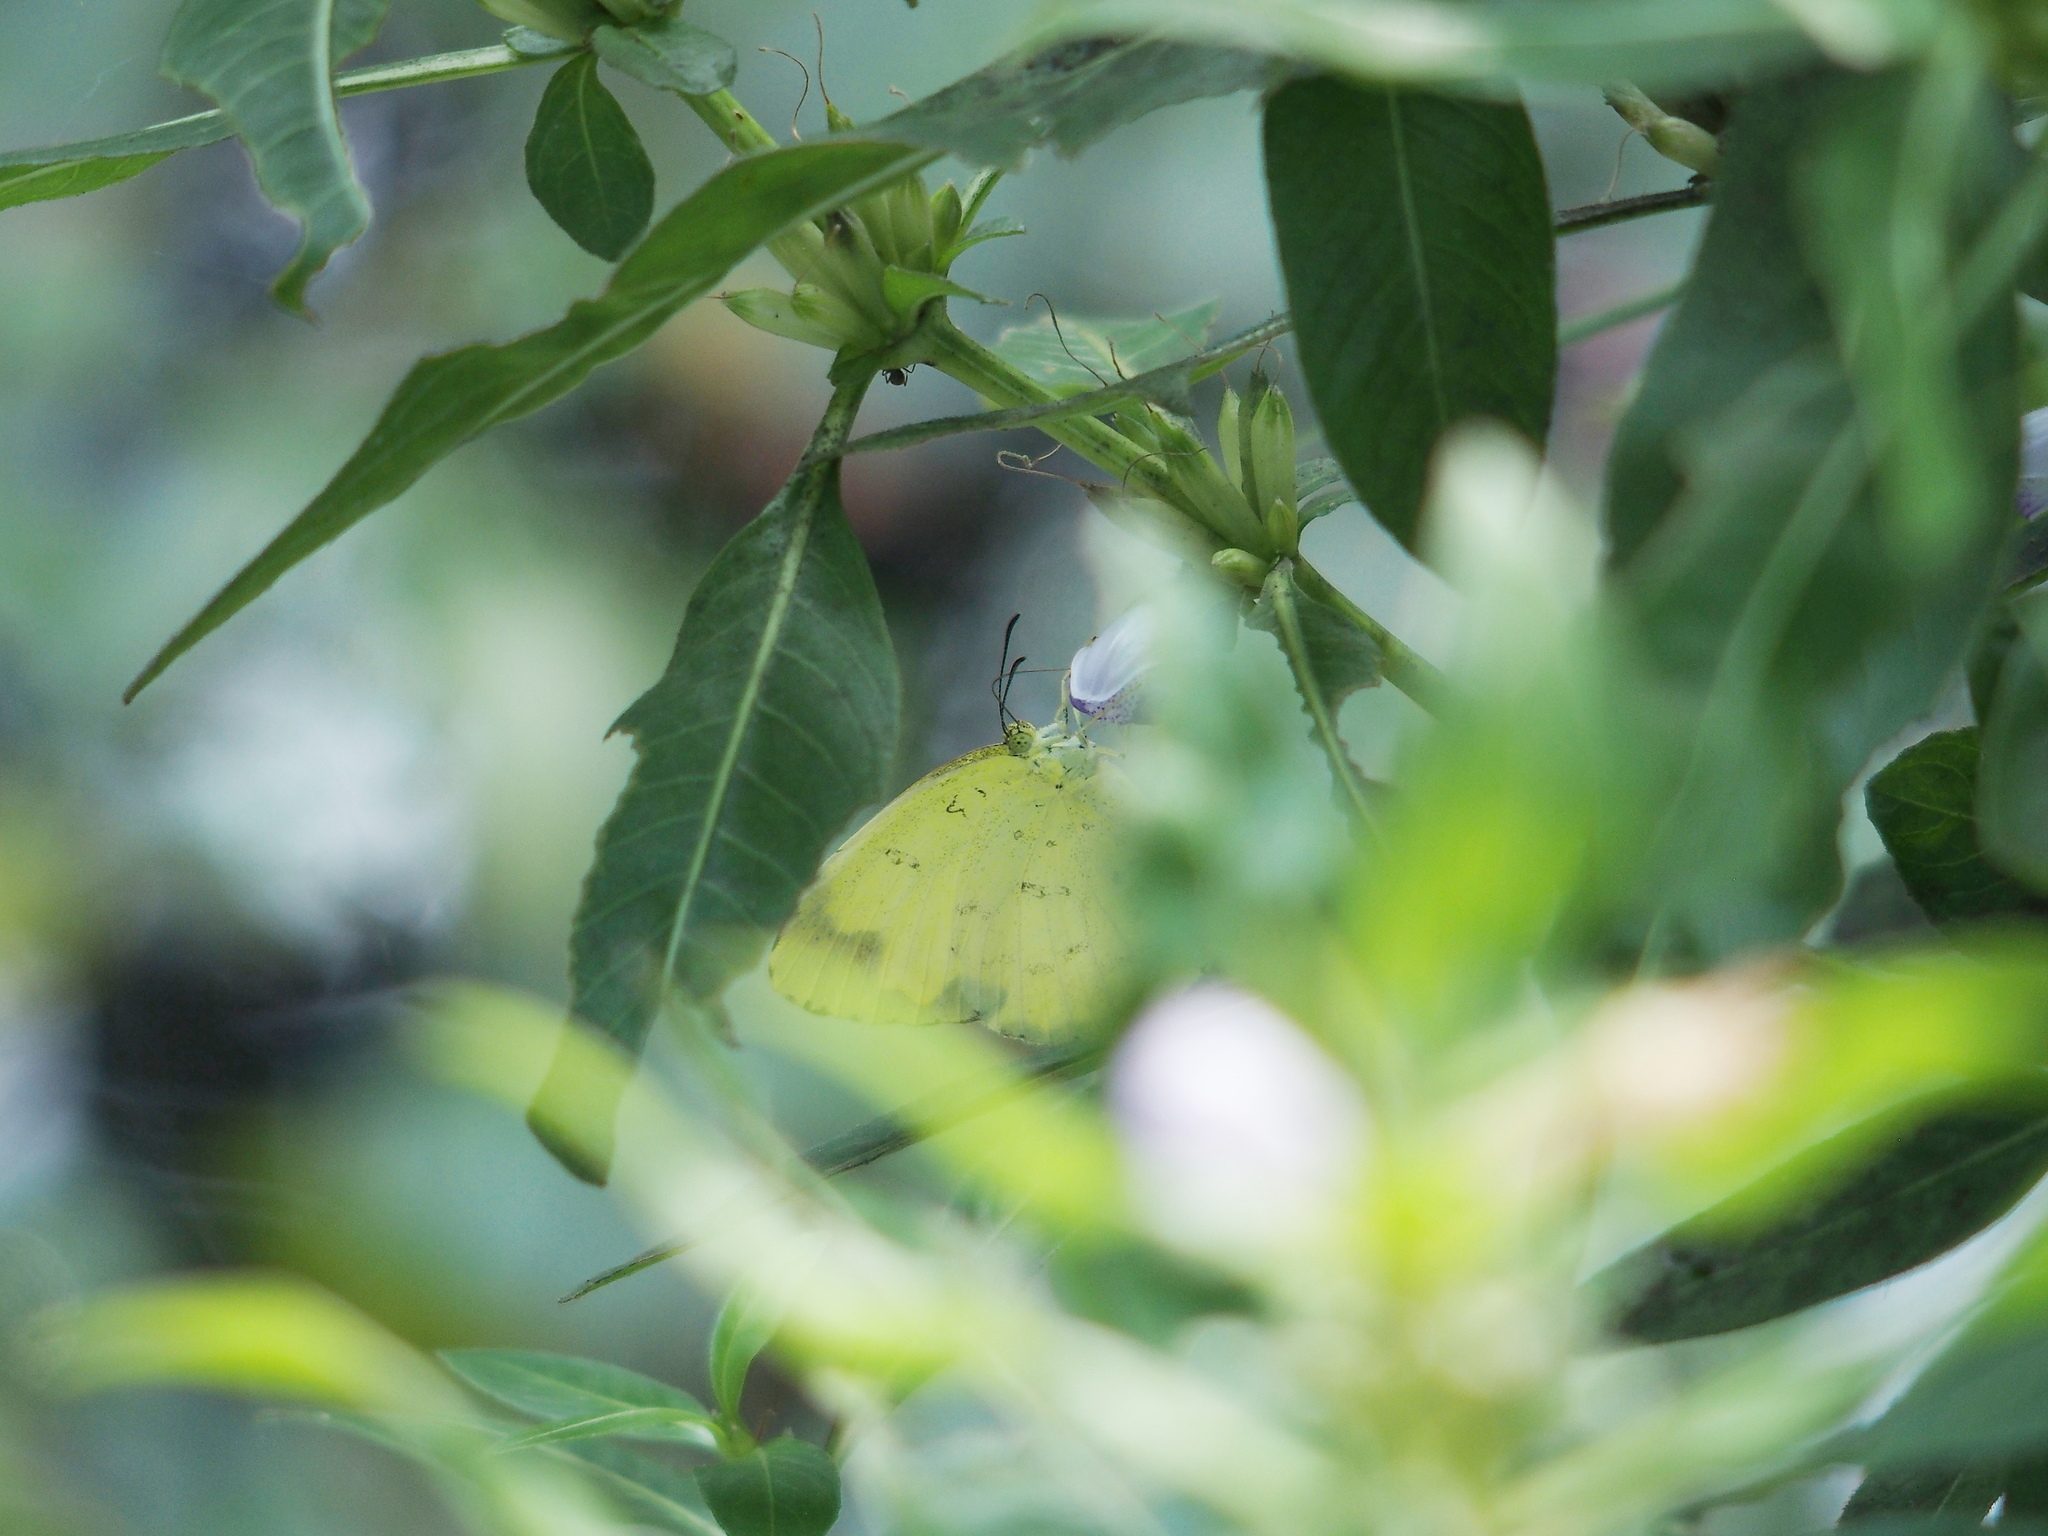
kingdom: Animalia
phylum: Arthropoda
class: Insecta
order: Lepidoptera
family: Pieridae
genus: Eurema
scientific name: Eurema blanda
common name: Three-spot grass yellow
